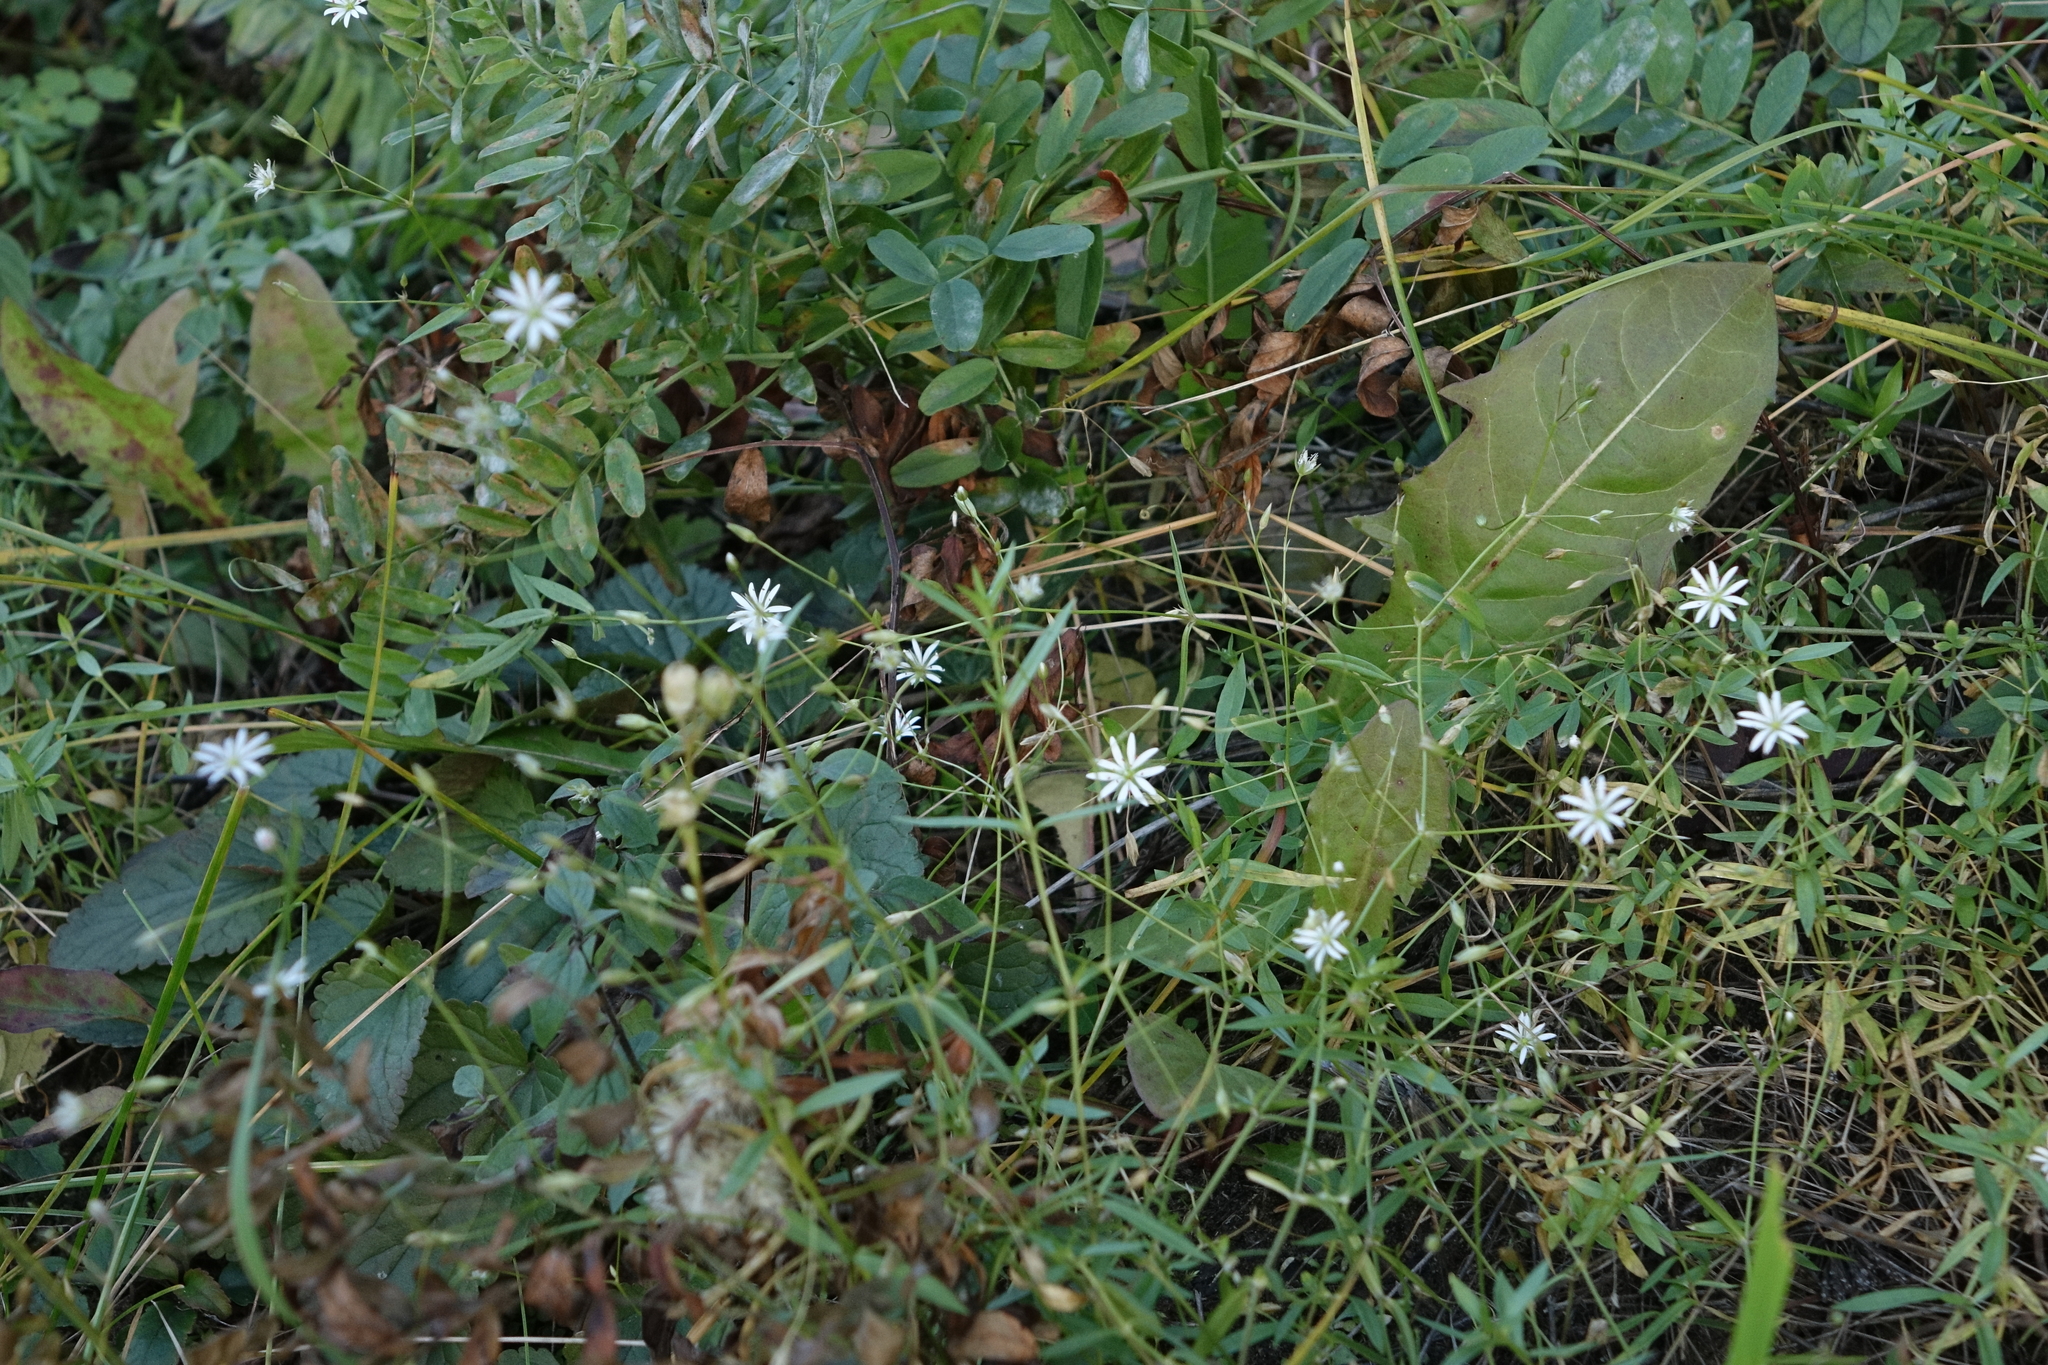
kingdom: Plantae
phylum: Tracheophyta
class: Magnoliopsida
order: Caryophyllales
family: Caryophyllaceae
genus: Stellaria
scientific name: Stellaria graminea
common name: Grass-like starwort
